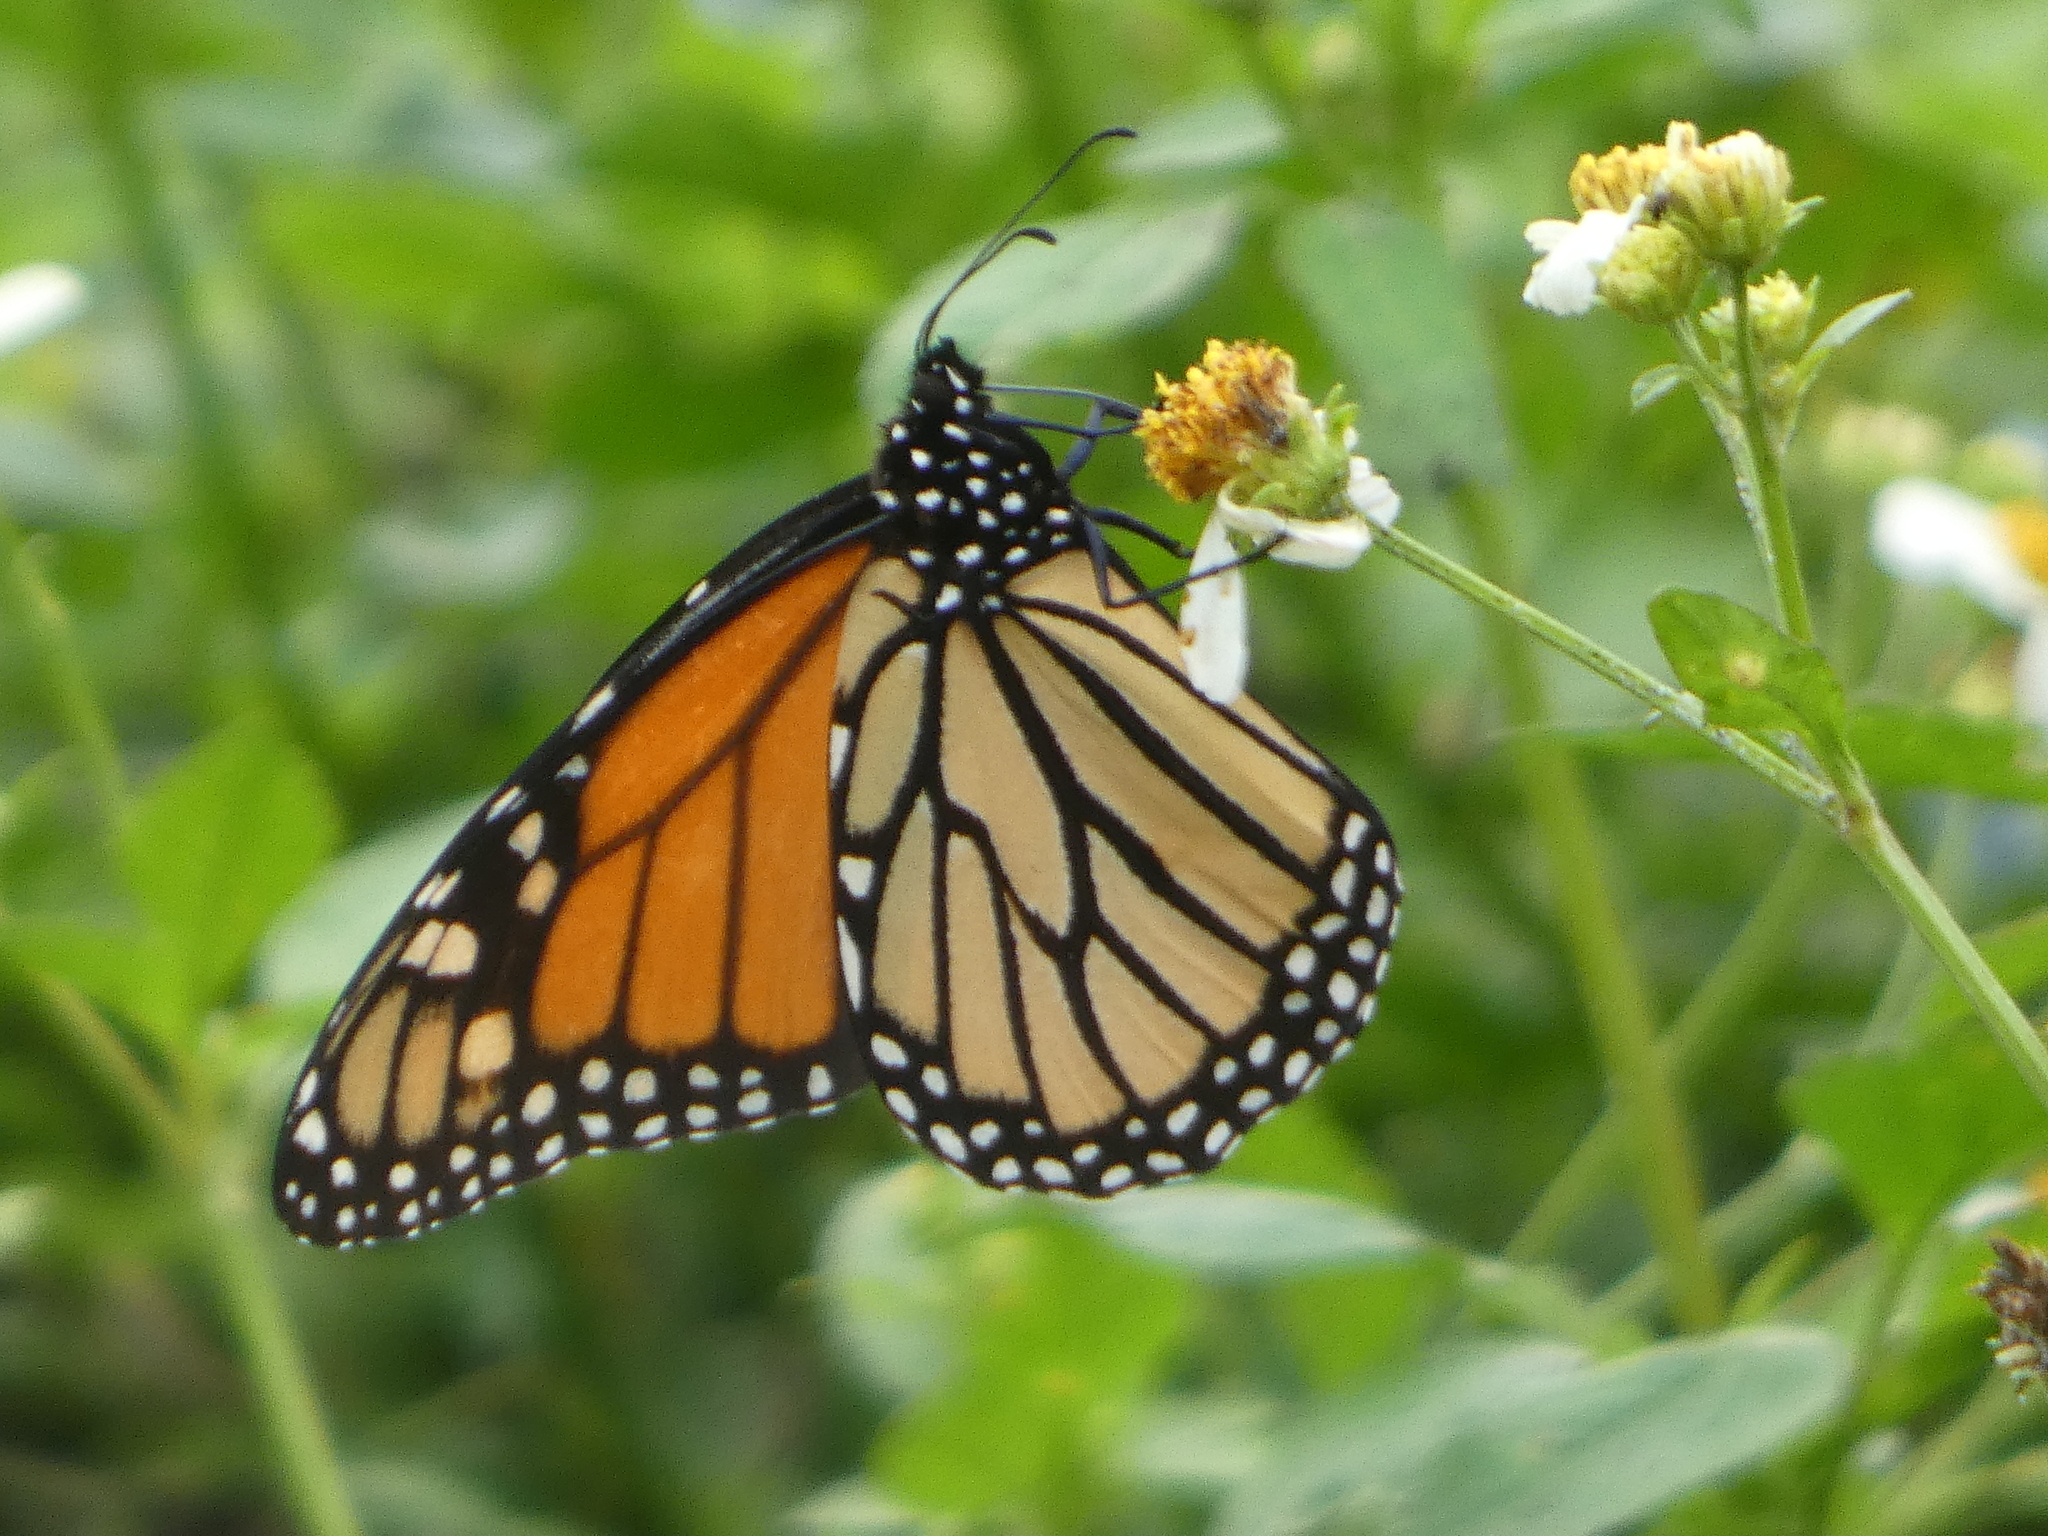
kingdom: Animalia
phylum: Arthropoda
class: Insecta
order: Lepidoptera
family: Nymphalidae
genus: Danaus
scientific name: Danaus plexippus
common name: Monarch
